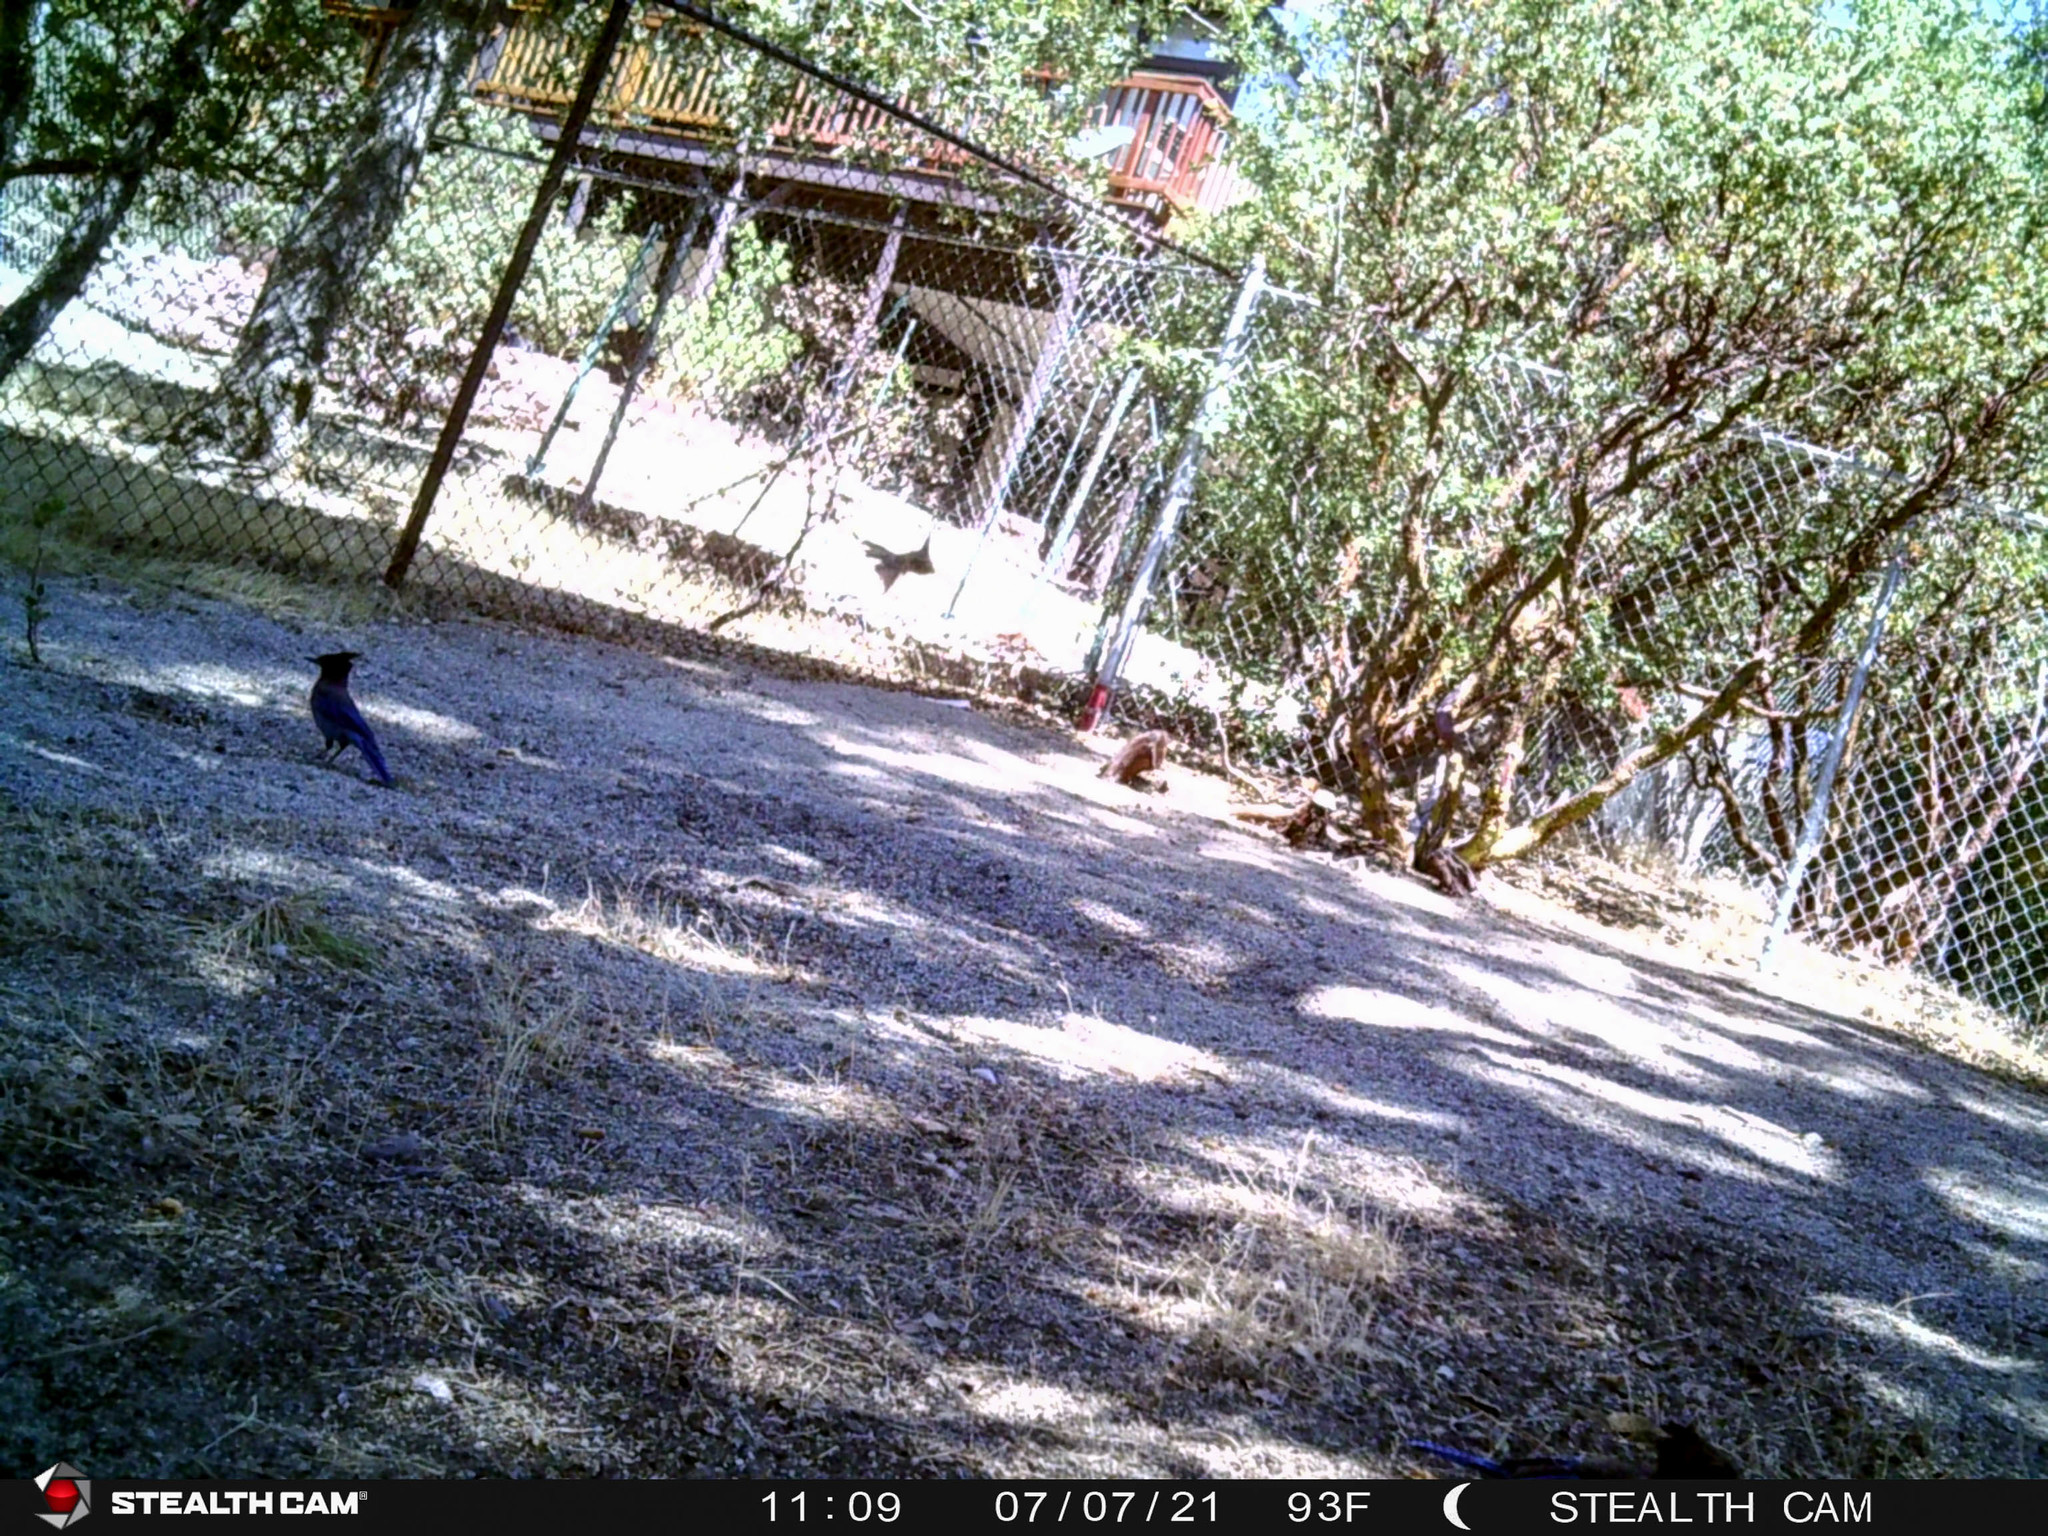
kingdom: Animalia
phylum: Chordata
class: Aves
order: Passeriformes
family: Corvidae
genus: Cyanocitta
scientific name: Cyanocitta stelleri
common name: Steller's jay
